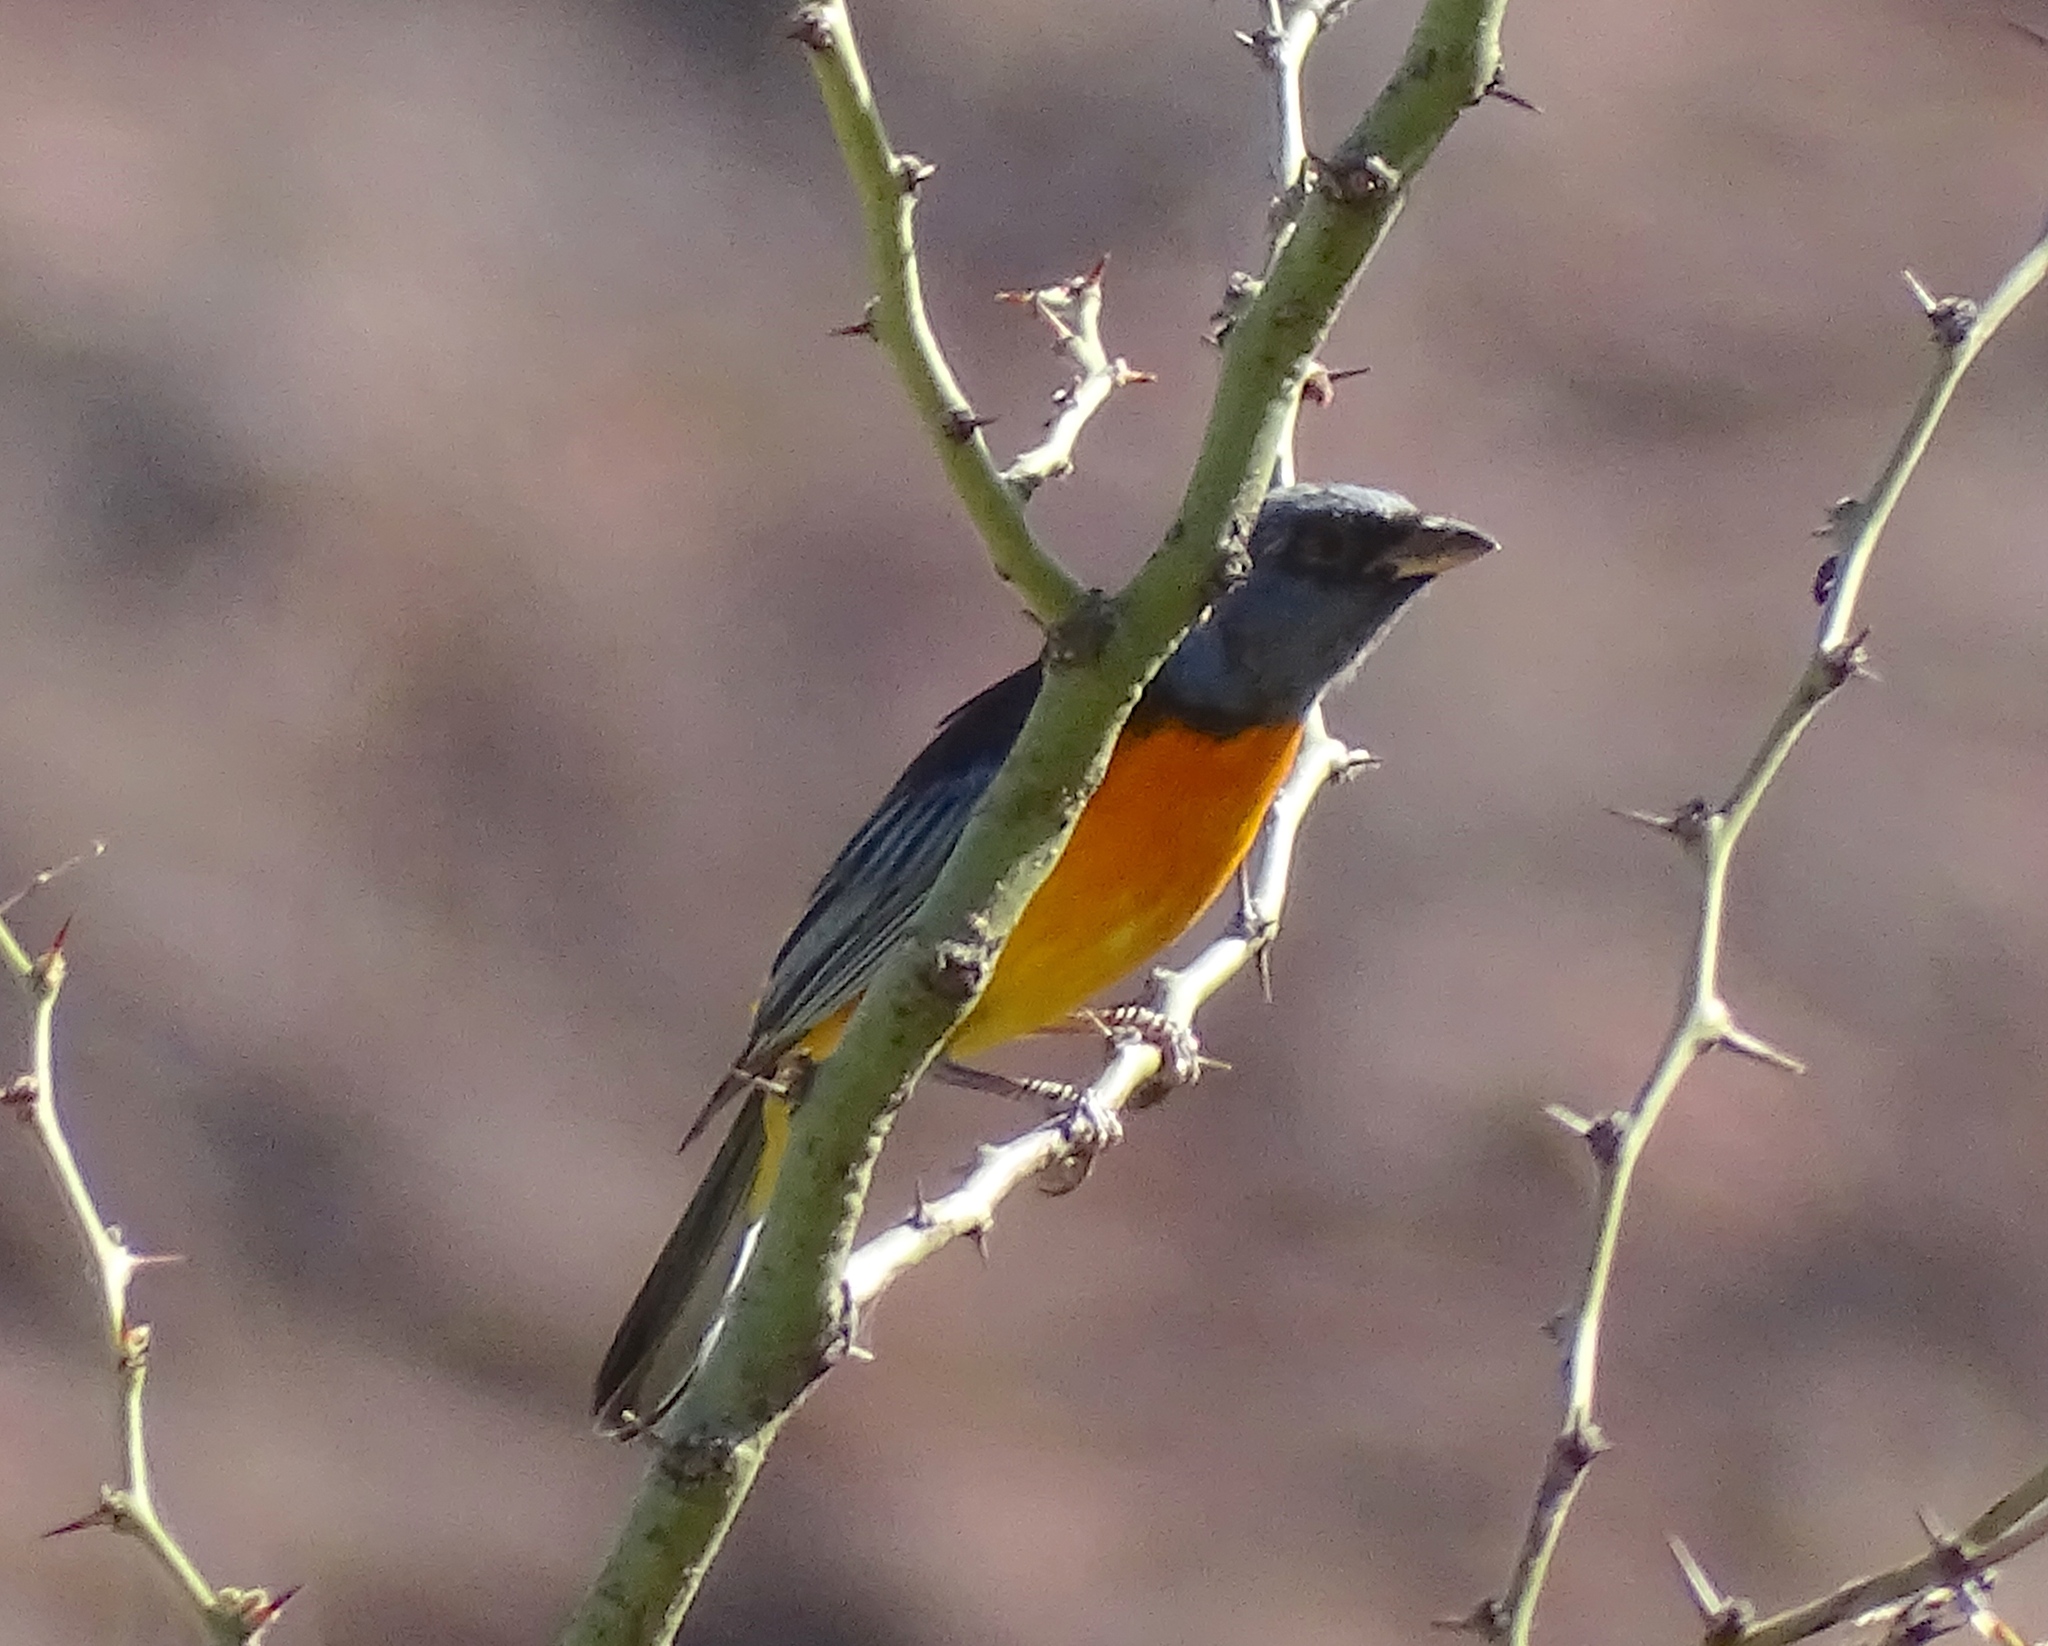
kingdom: Animalia
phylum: Chordata
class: Aves
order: Passeriformes
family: Thraupidae
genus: Rauenia
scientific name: Rauenia bonariensis
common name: Blue-and-yellow tanager
